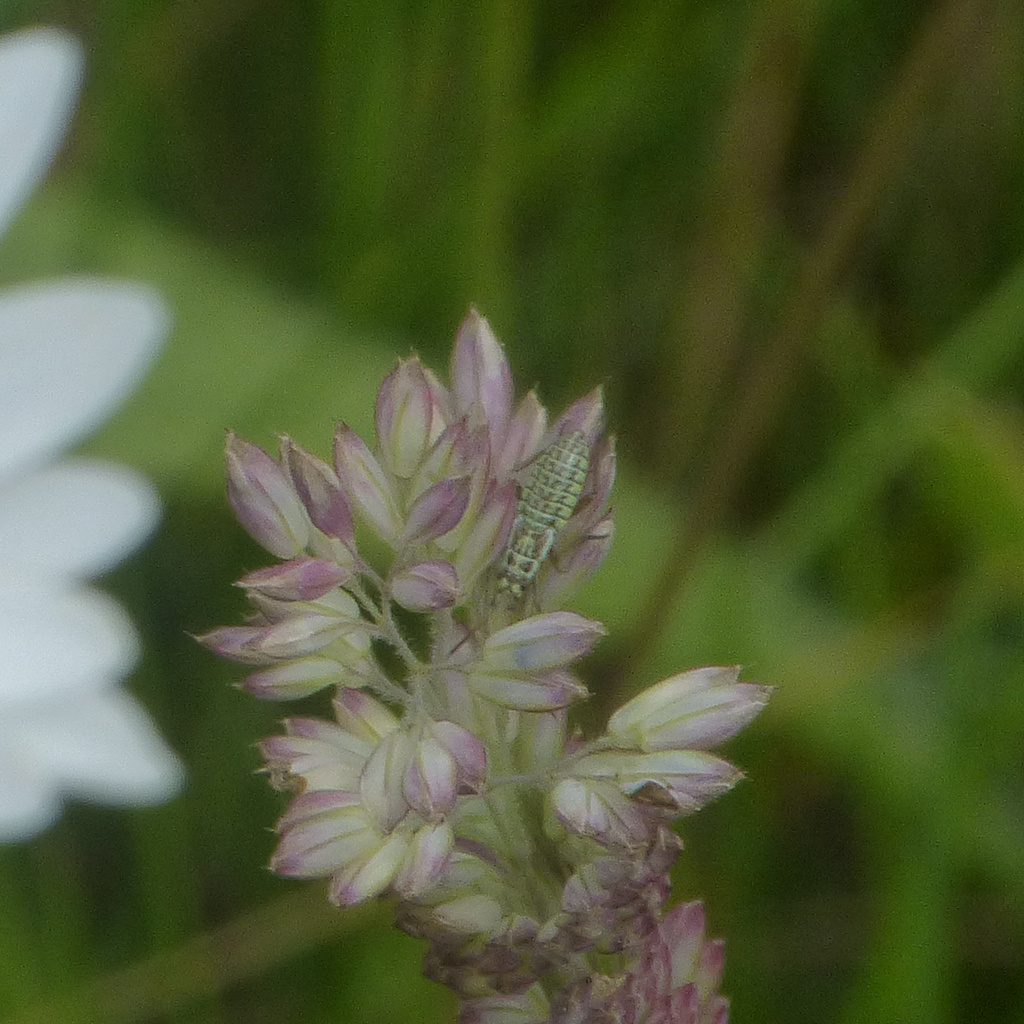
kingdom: Animalia
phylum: Arthropoda
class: Insecta
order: Hemiptera
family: Miridae
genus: Leptopterna
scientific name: Leptopterna dolabrata
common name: Meadow plant bug
